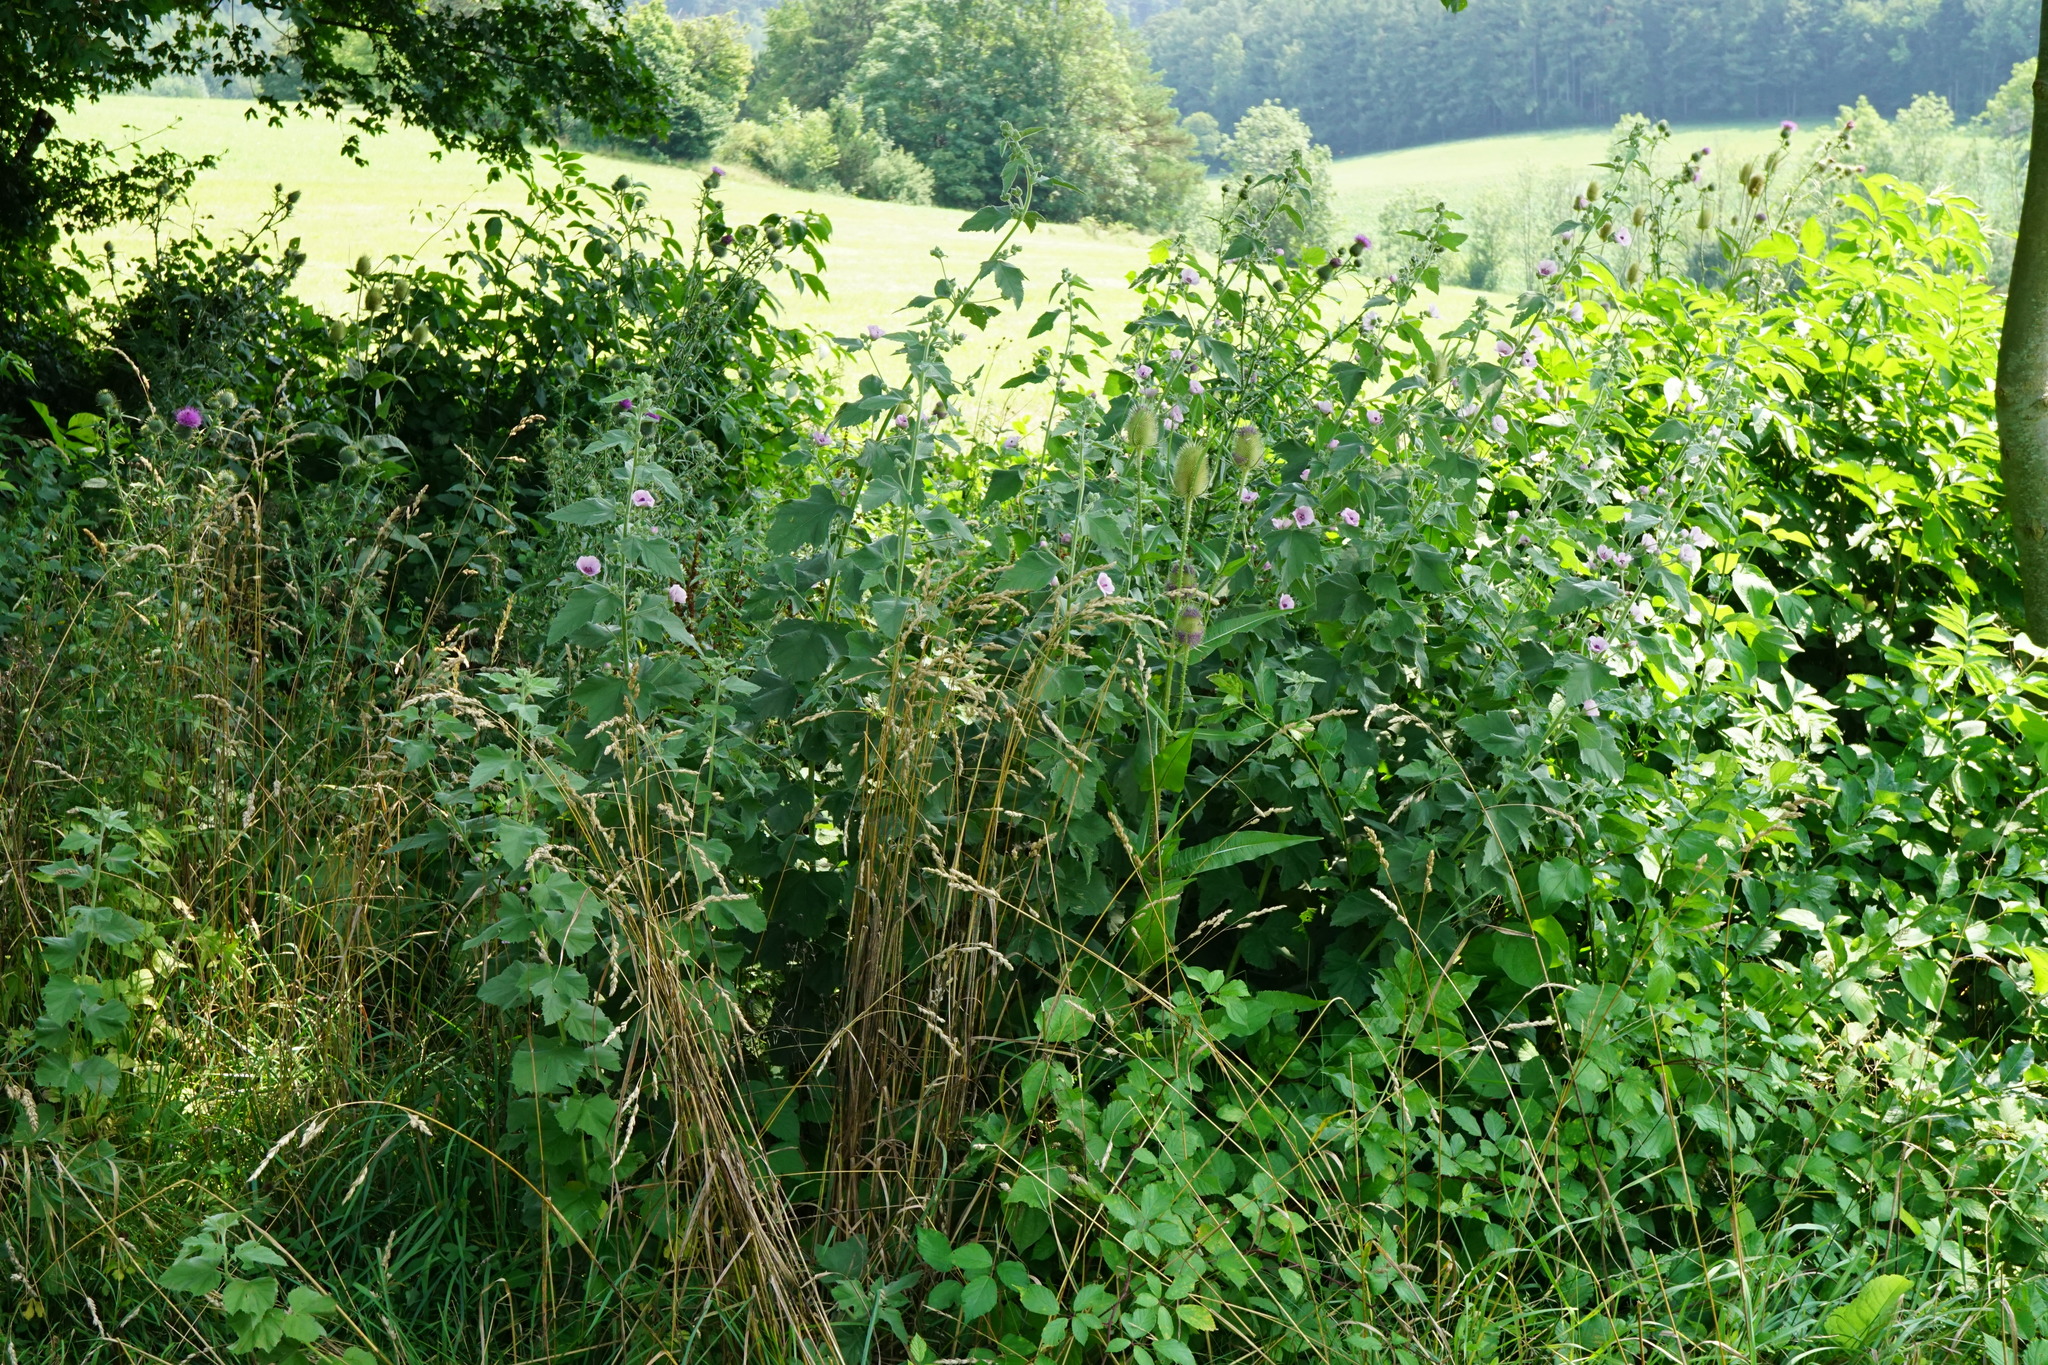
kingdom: Plantae
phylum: Tracheophyta
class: Magnoliopsida
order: Malvales
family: Malvaceae
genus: Althaea
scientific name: Althaea officinalis
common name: Marsh-mallow
